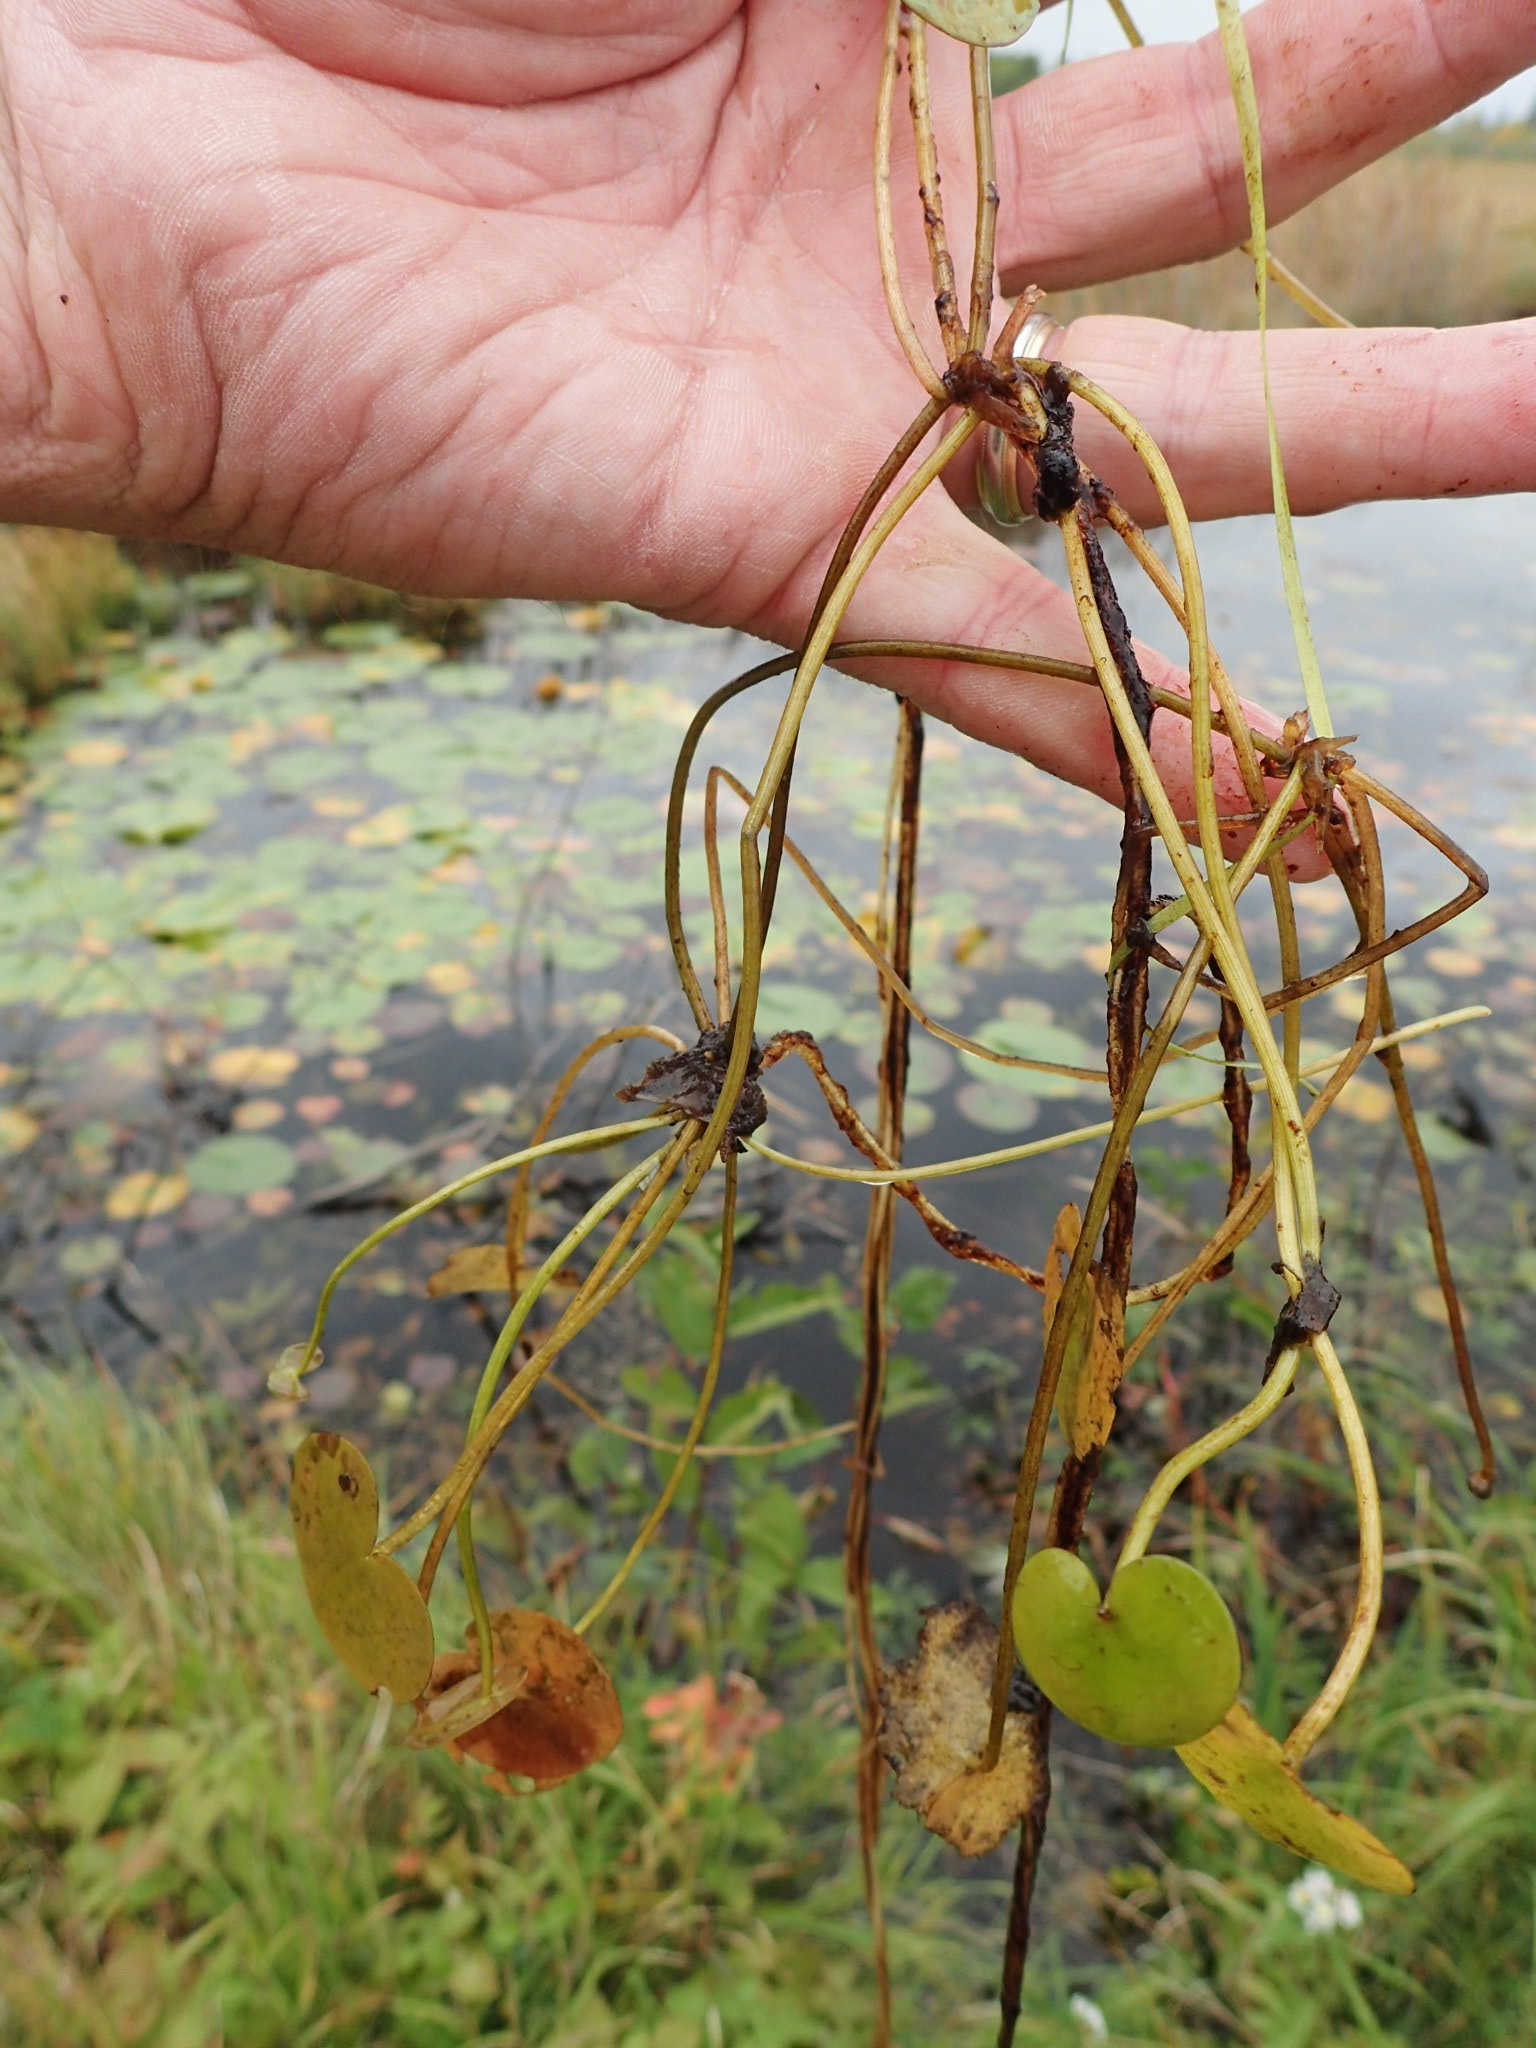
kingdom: Plantae
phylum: Tracheophyta
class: Liliopsida
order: Alismatales
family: Hydrocharitaceae
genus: Hydrocharis
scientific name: Hydrocharis morsus-ranae
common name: Frogbit
